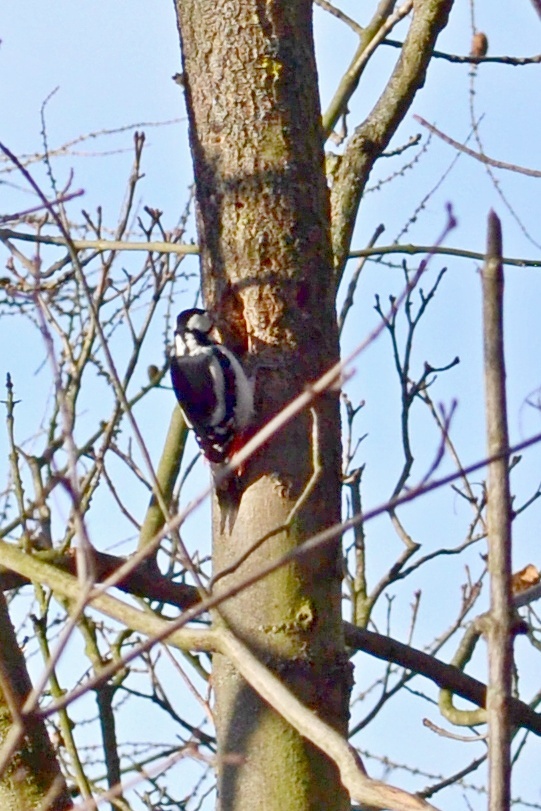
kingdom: Animalia
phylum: Chordata
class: Aves
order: Piciformes
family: Picidae
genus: Dendrocopos
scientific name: Dendrocopos major
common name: Great spotted woodpecker
